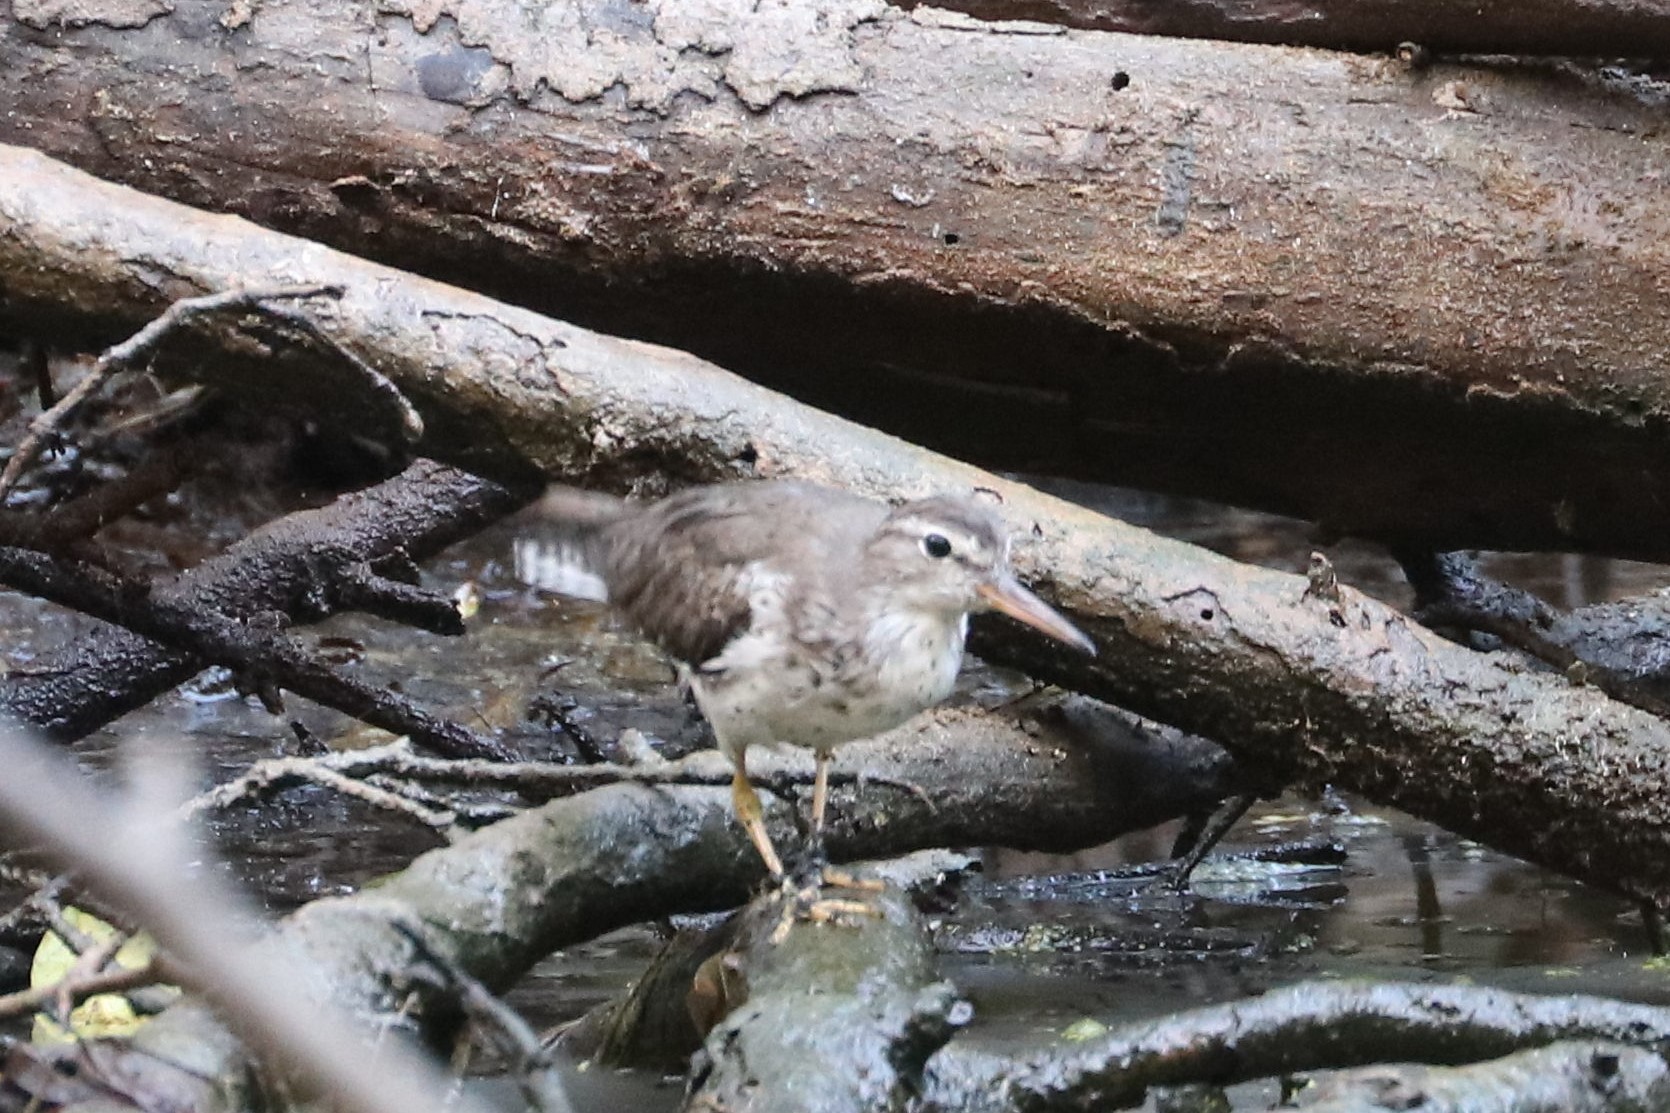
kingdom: Animalia
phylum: Chordata
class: Aves
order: Charadriiformes
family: Scolopacidae
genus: Actitis
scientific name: Actitis macularius
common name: Spotted sandpiper
